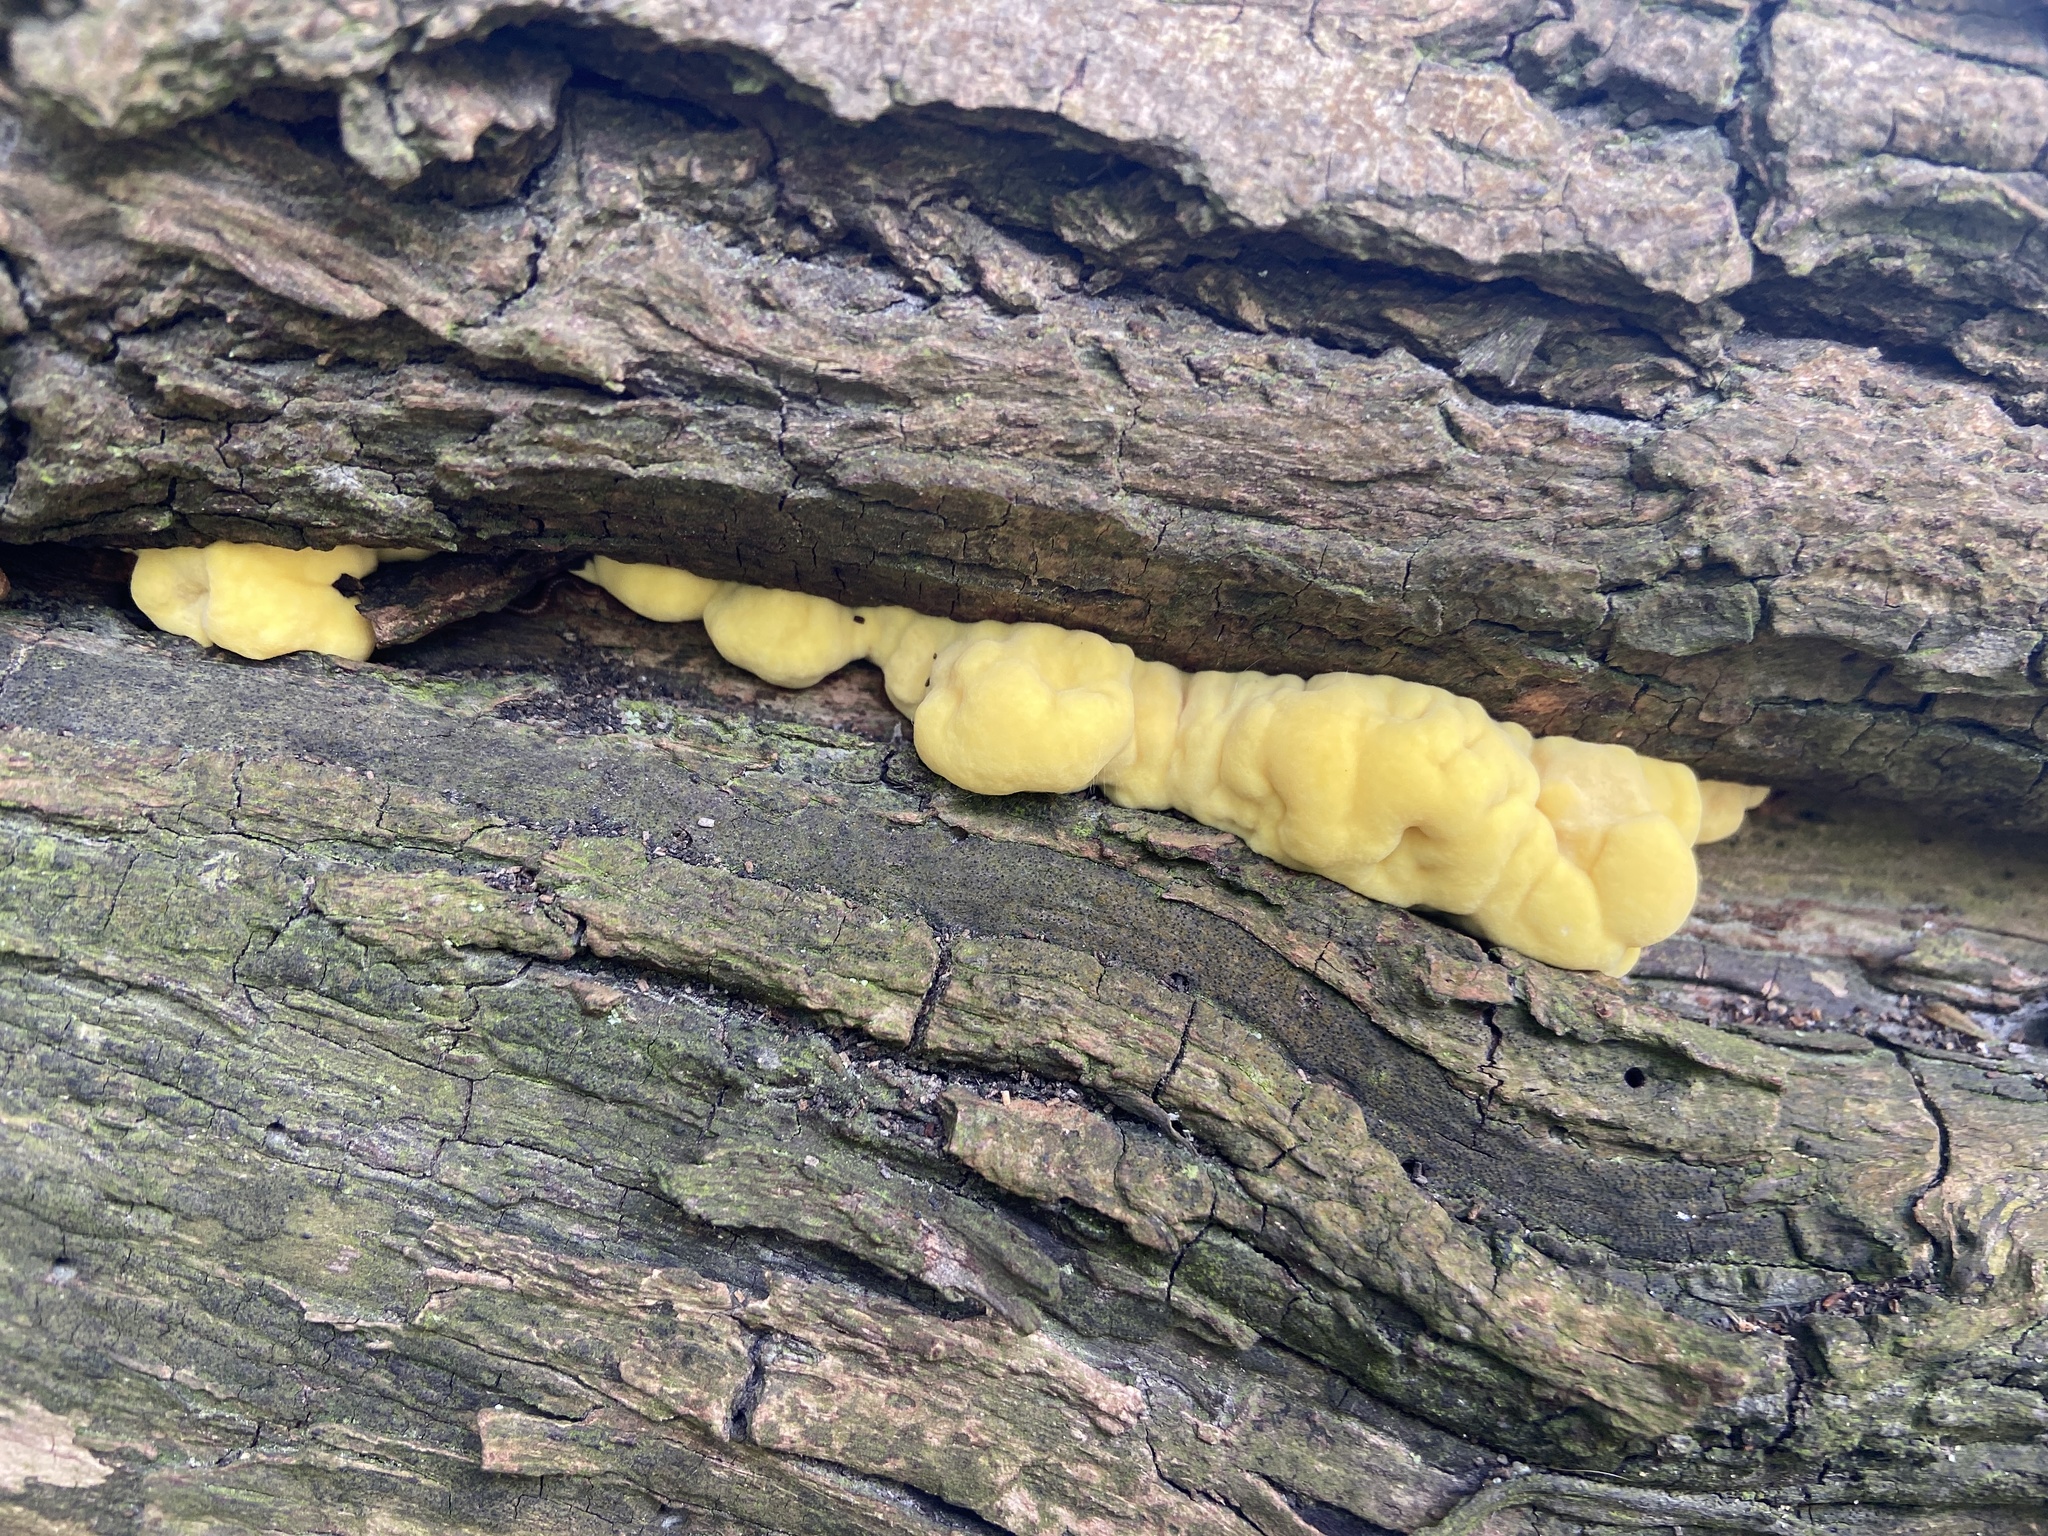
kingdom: Fungi
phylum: Basidiomycota
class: Agaricomycetes
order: Polyporales
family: Laetiporaceae
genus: Laetiporus
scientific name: Laetiporus sulphureus
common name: Chicken of the woods
